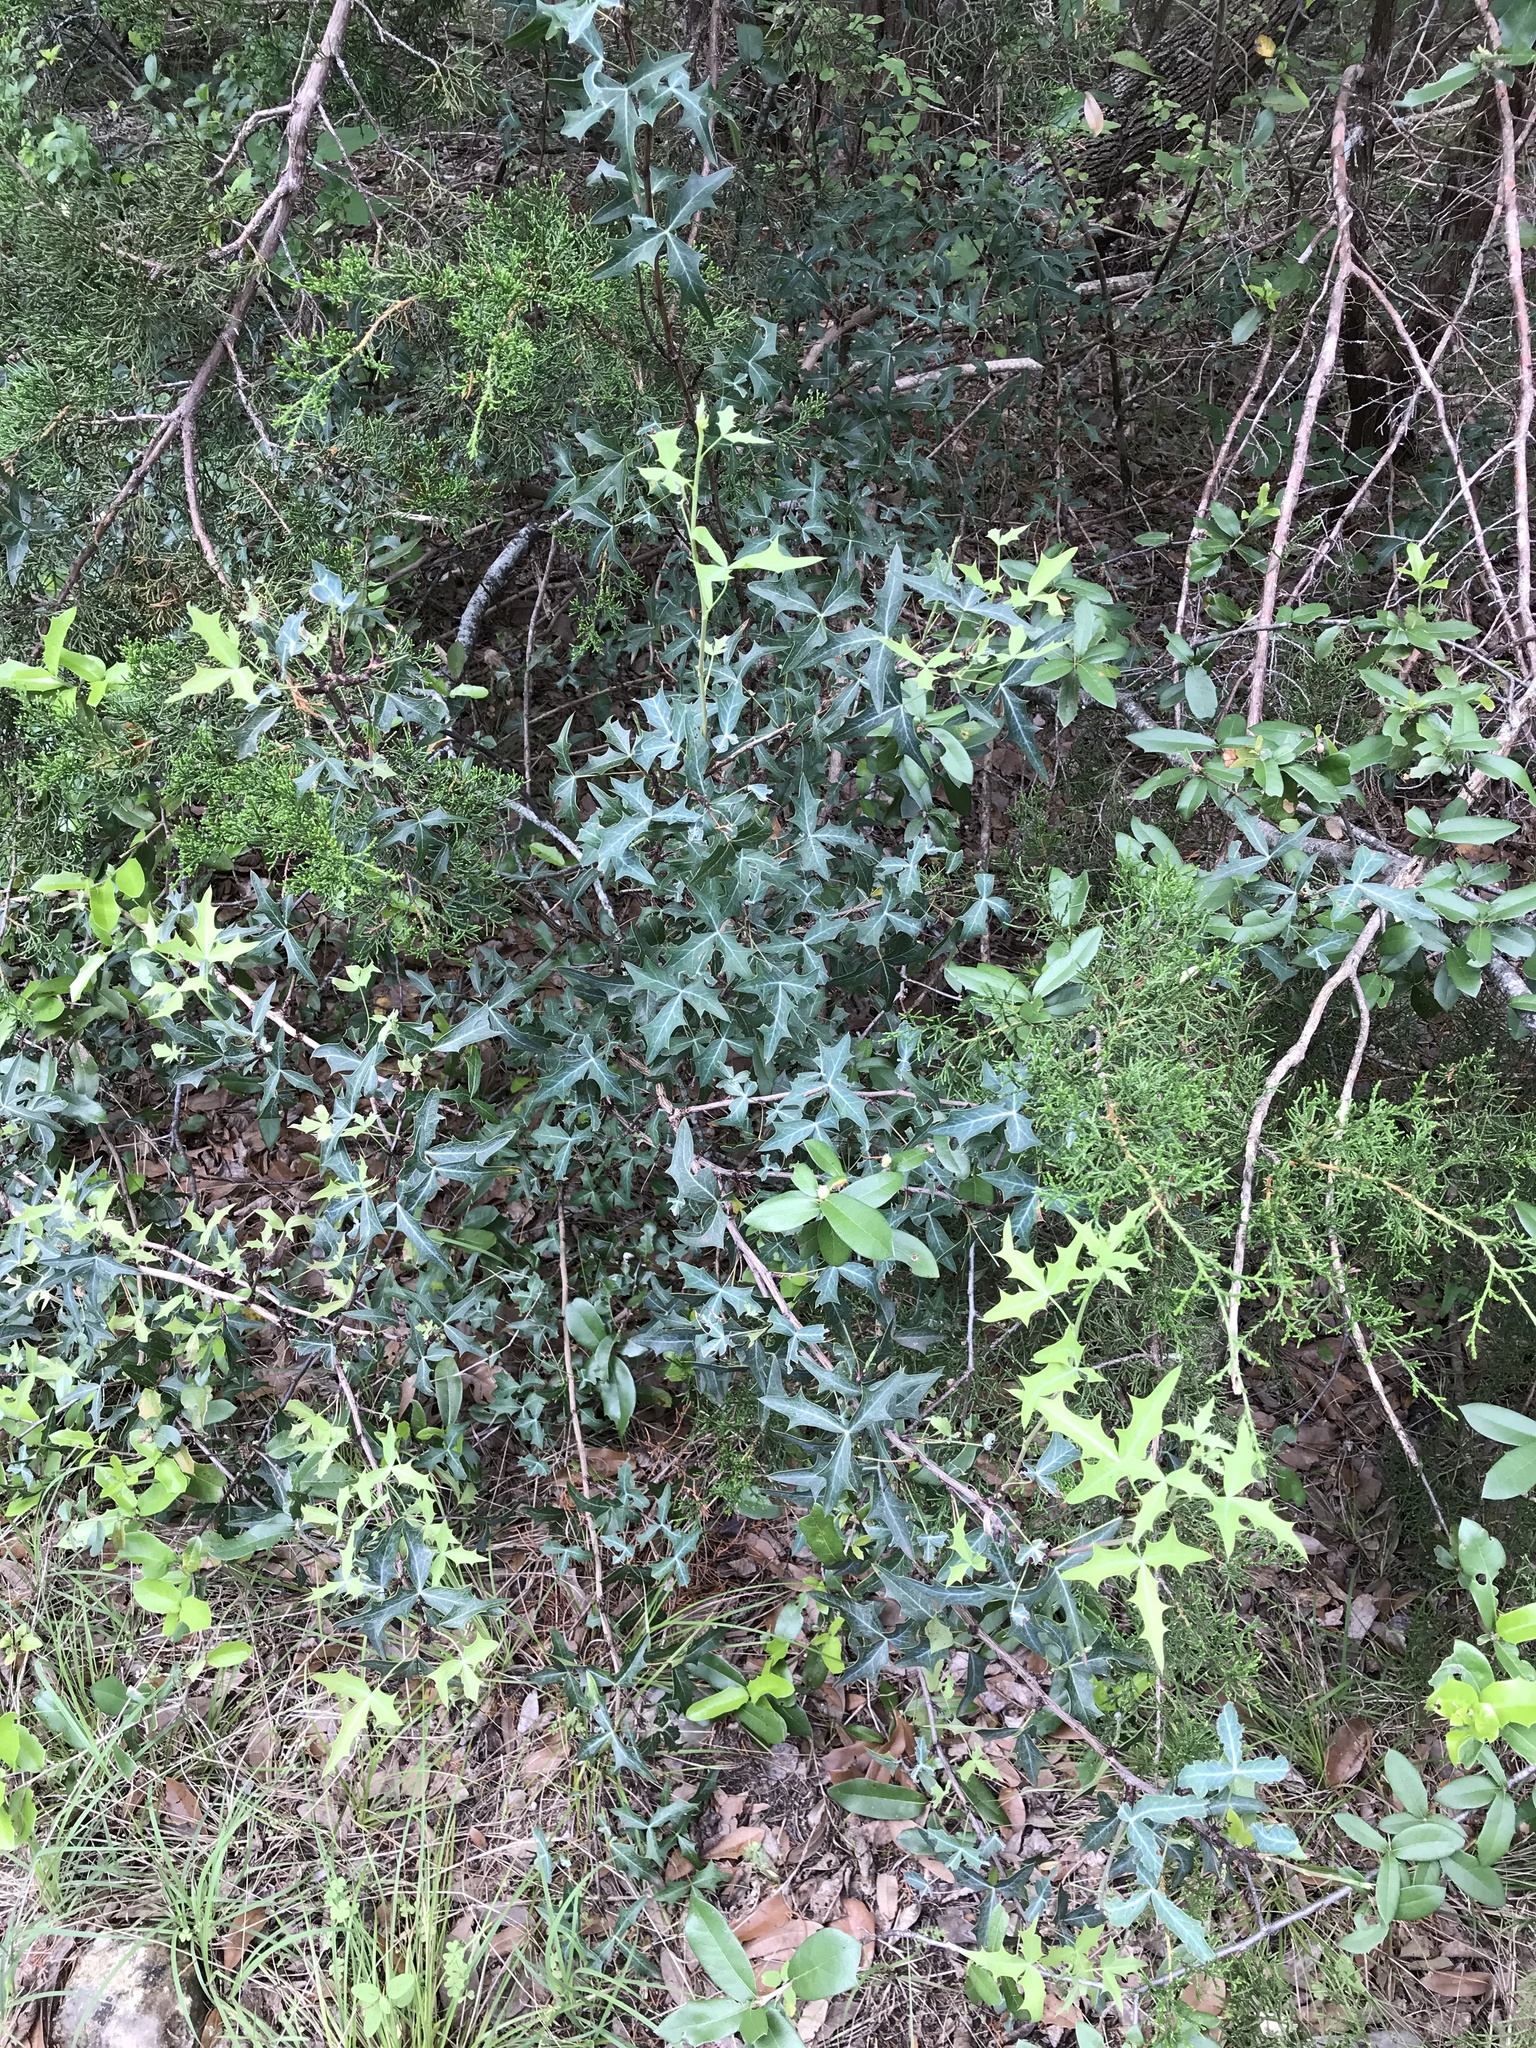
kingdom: Plantae
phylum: Tracheophyta
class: Magnoliopsida
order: Ranunculales
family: Berberidaceae
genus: Alloberberis
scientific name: Alloberberis trifoliolata
